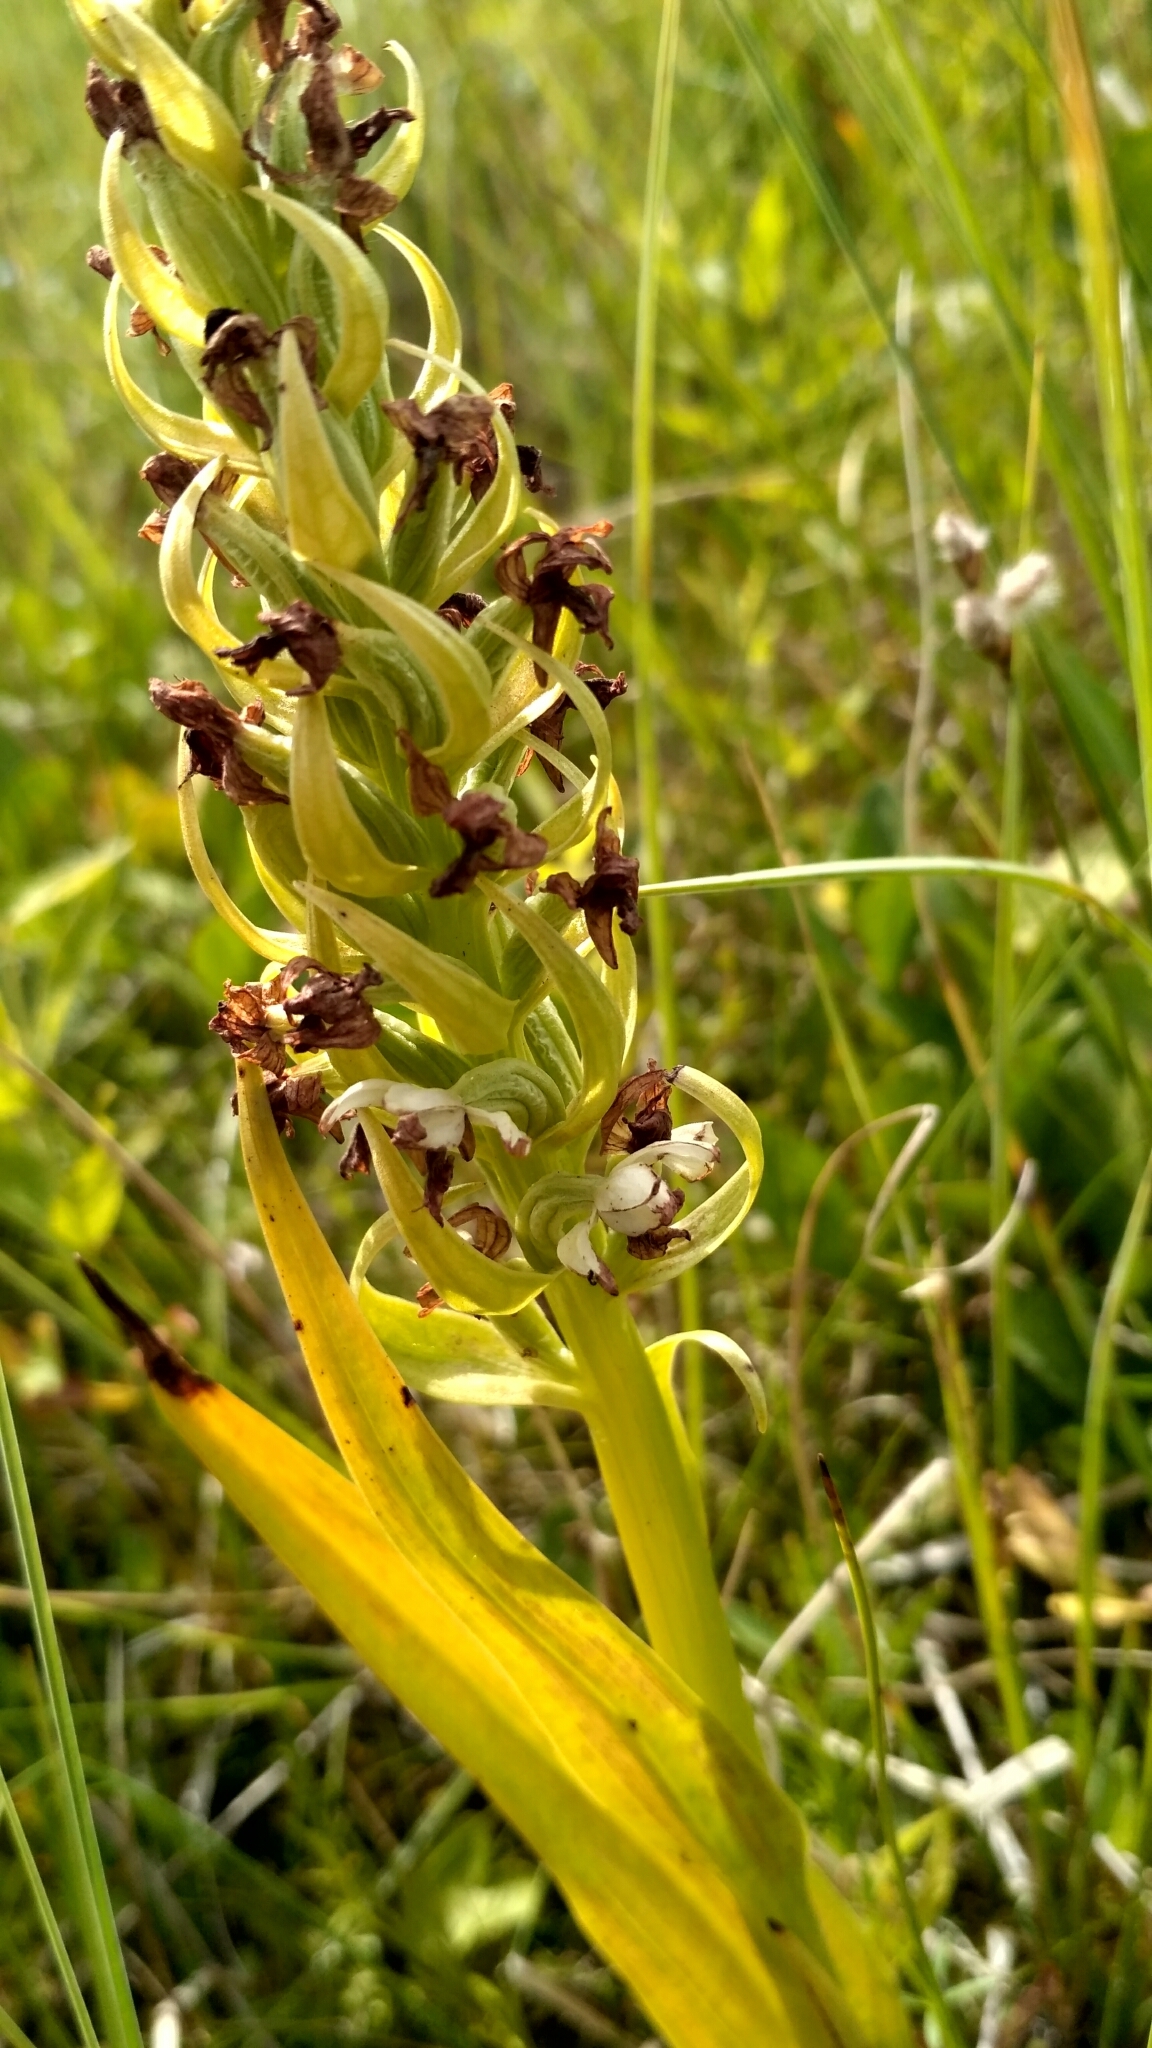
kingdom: Plantae
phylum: Tracheophyta
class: Liliopsida
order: Asparagales
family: Orchidaceae
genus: Dactylorhiza
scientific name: Dactylorhiza incarnata
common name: Early marsh-orchid
